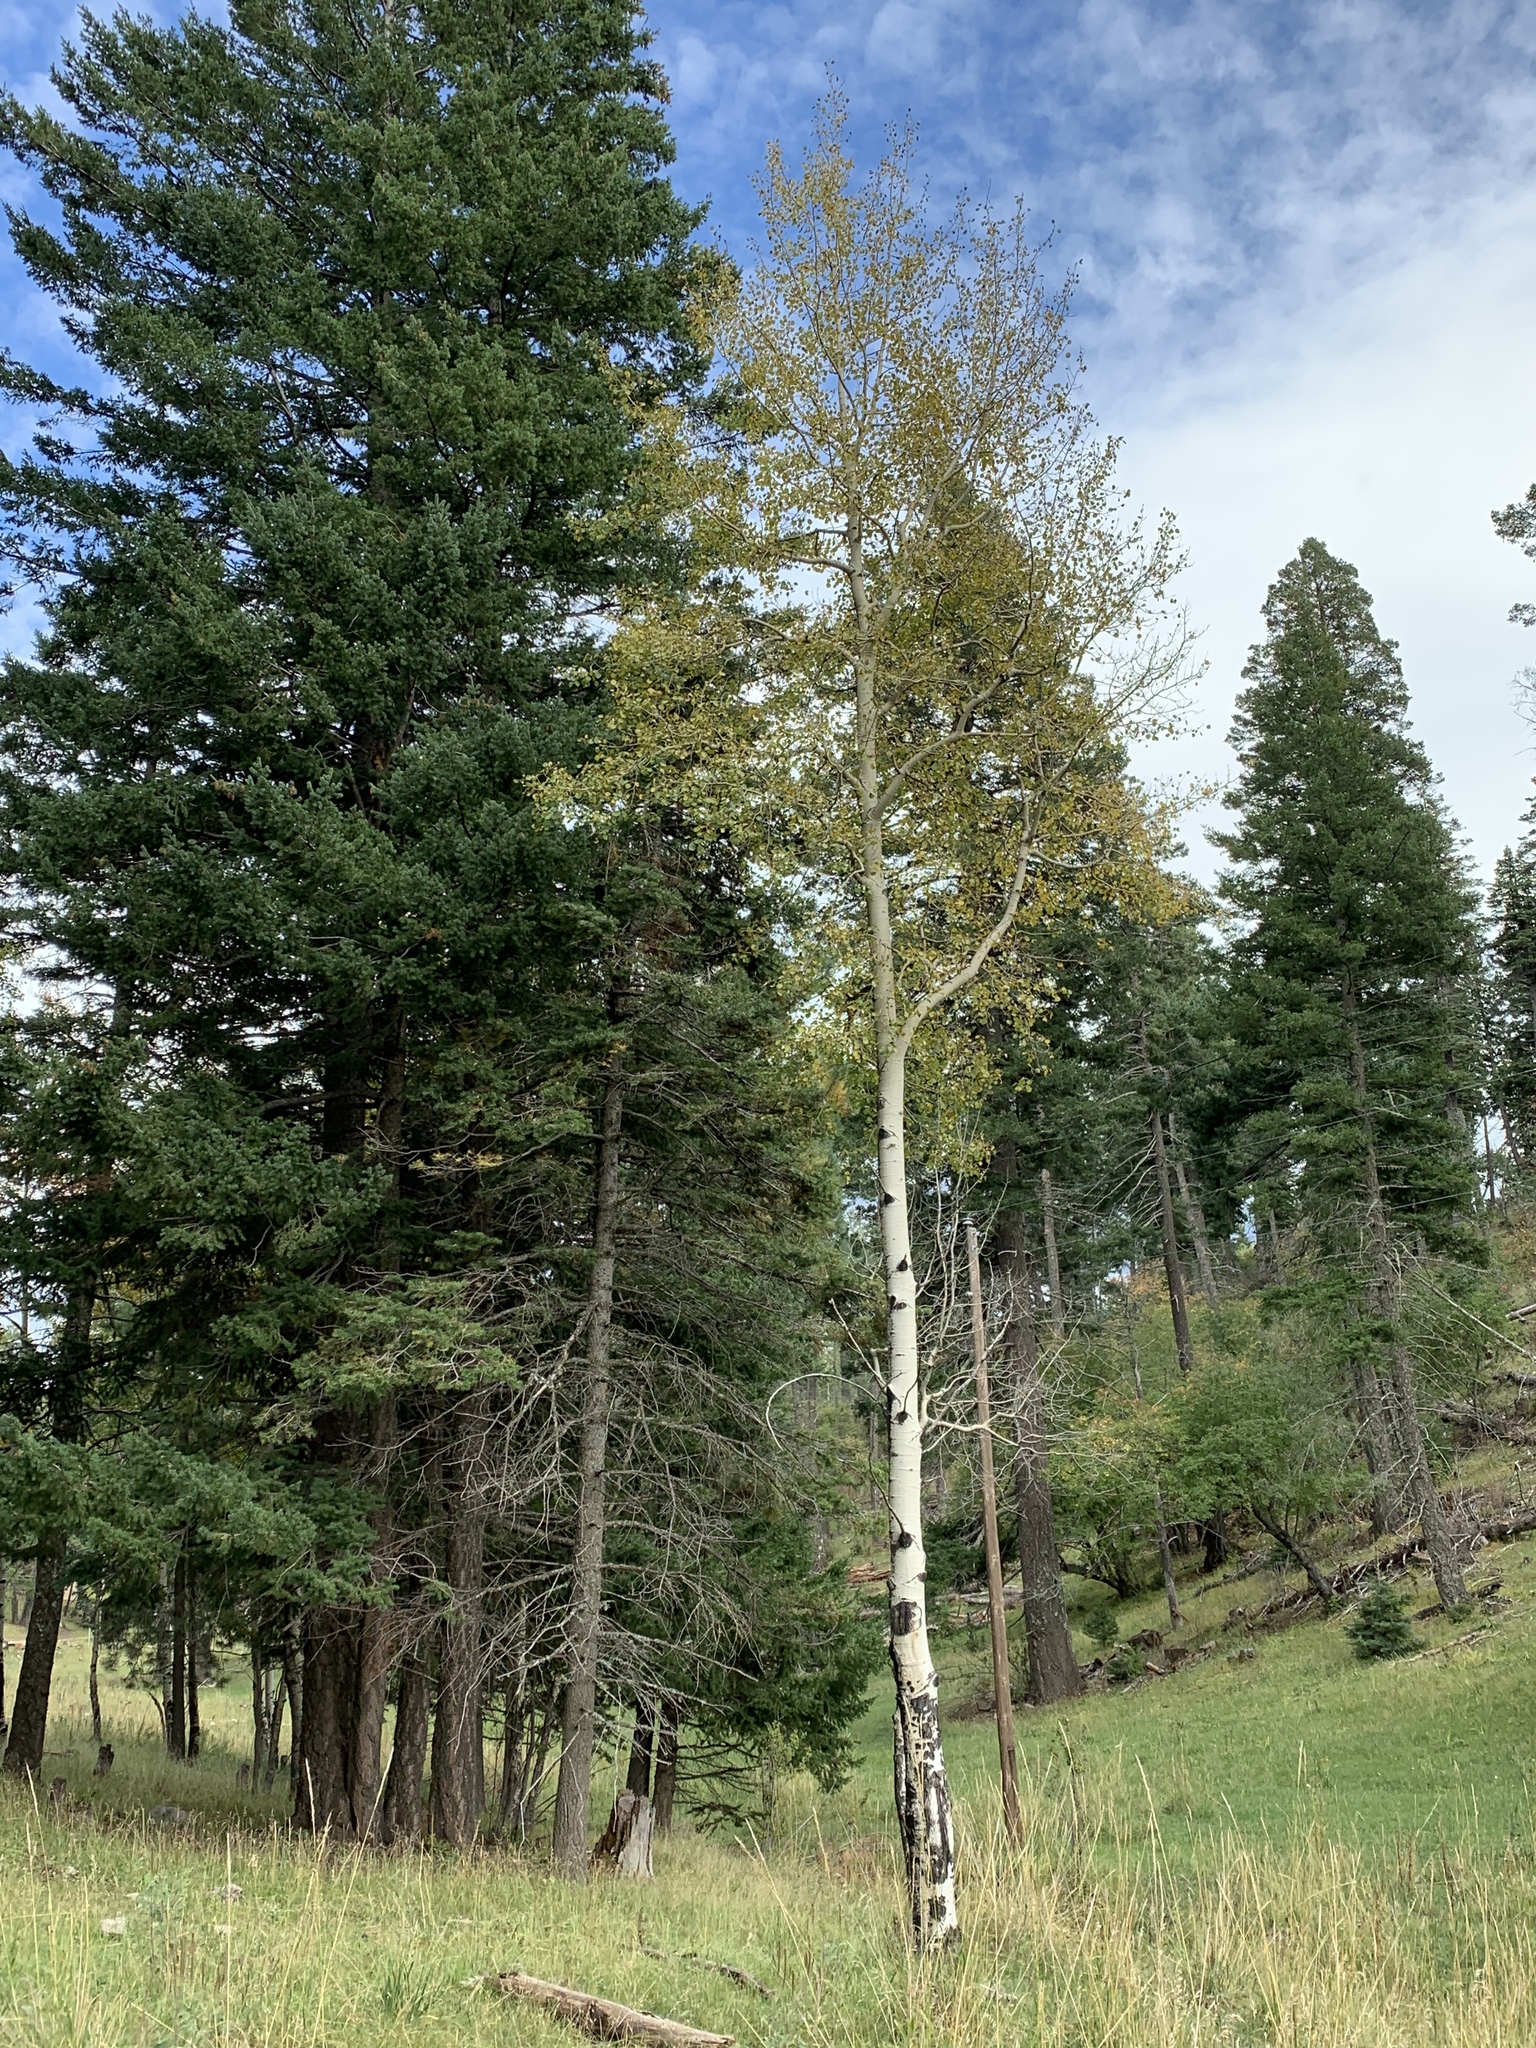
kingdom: Plantae
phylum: Tracheophyta
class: Magnoliopsida
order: Malpighiales
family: Salicaceae
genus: Populus
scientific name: Populus tremuloides
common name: Quaking aspen
